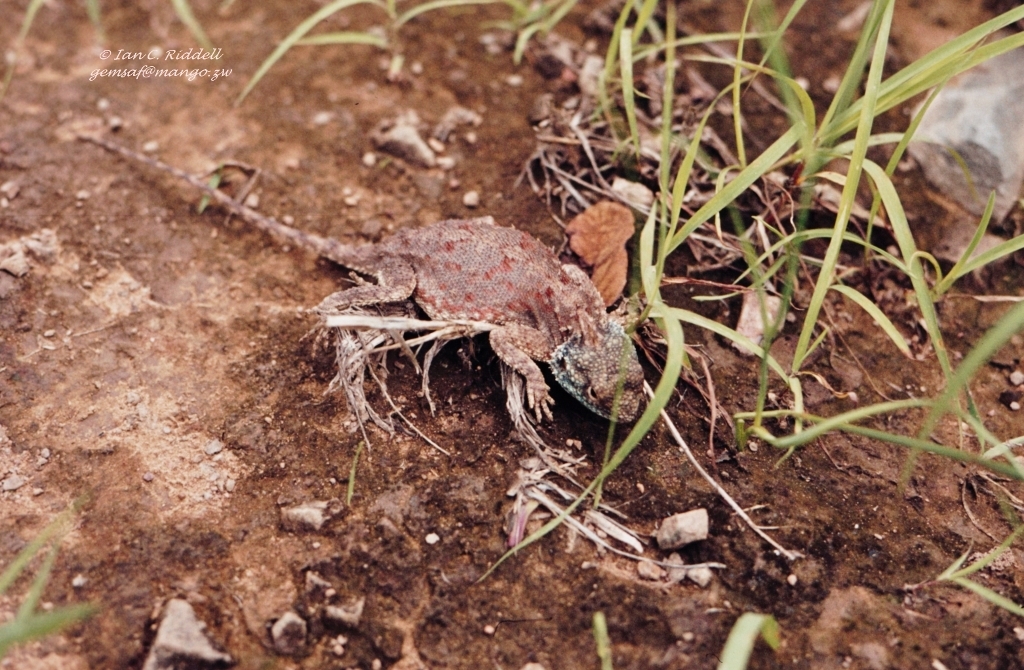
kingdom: Animalia
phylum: Chordata
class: Squamata
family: Agamidae
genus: Agama
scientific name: Agama aculeata
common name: Common ground agama
